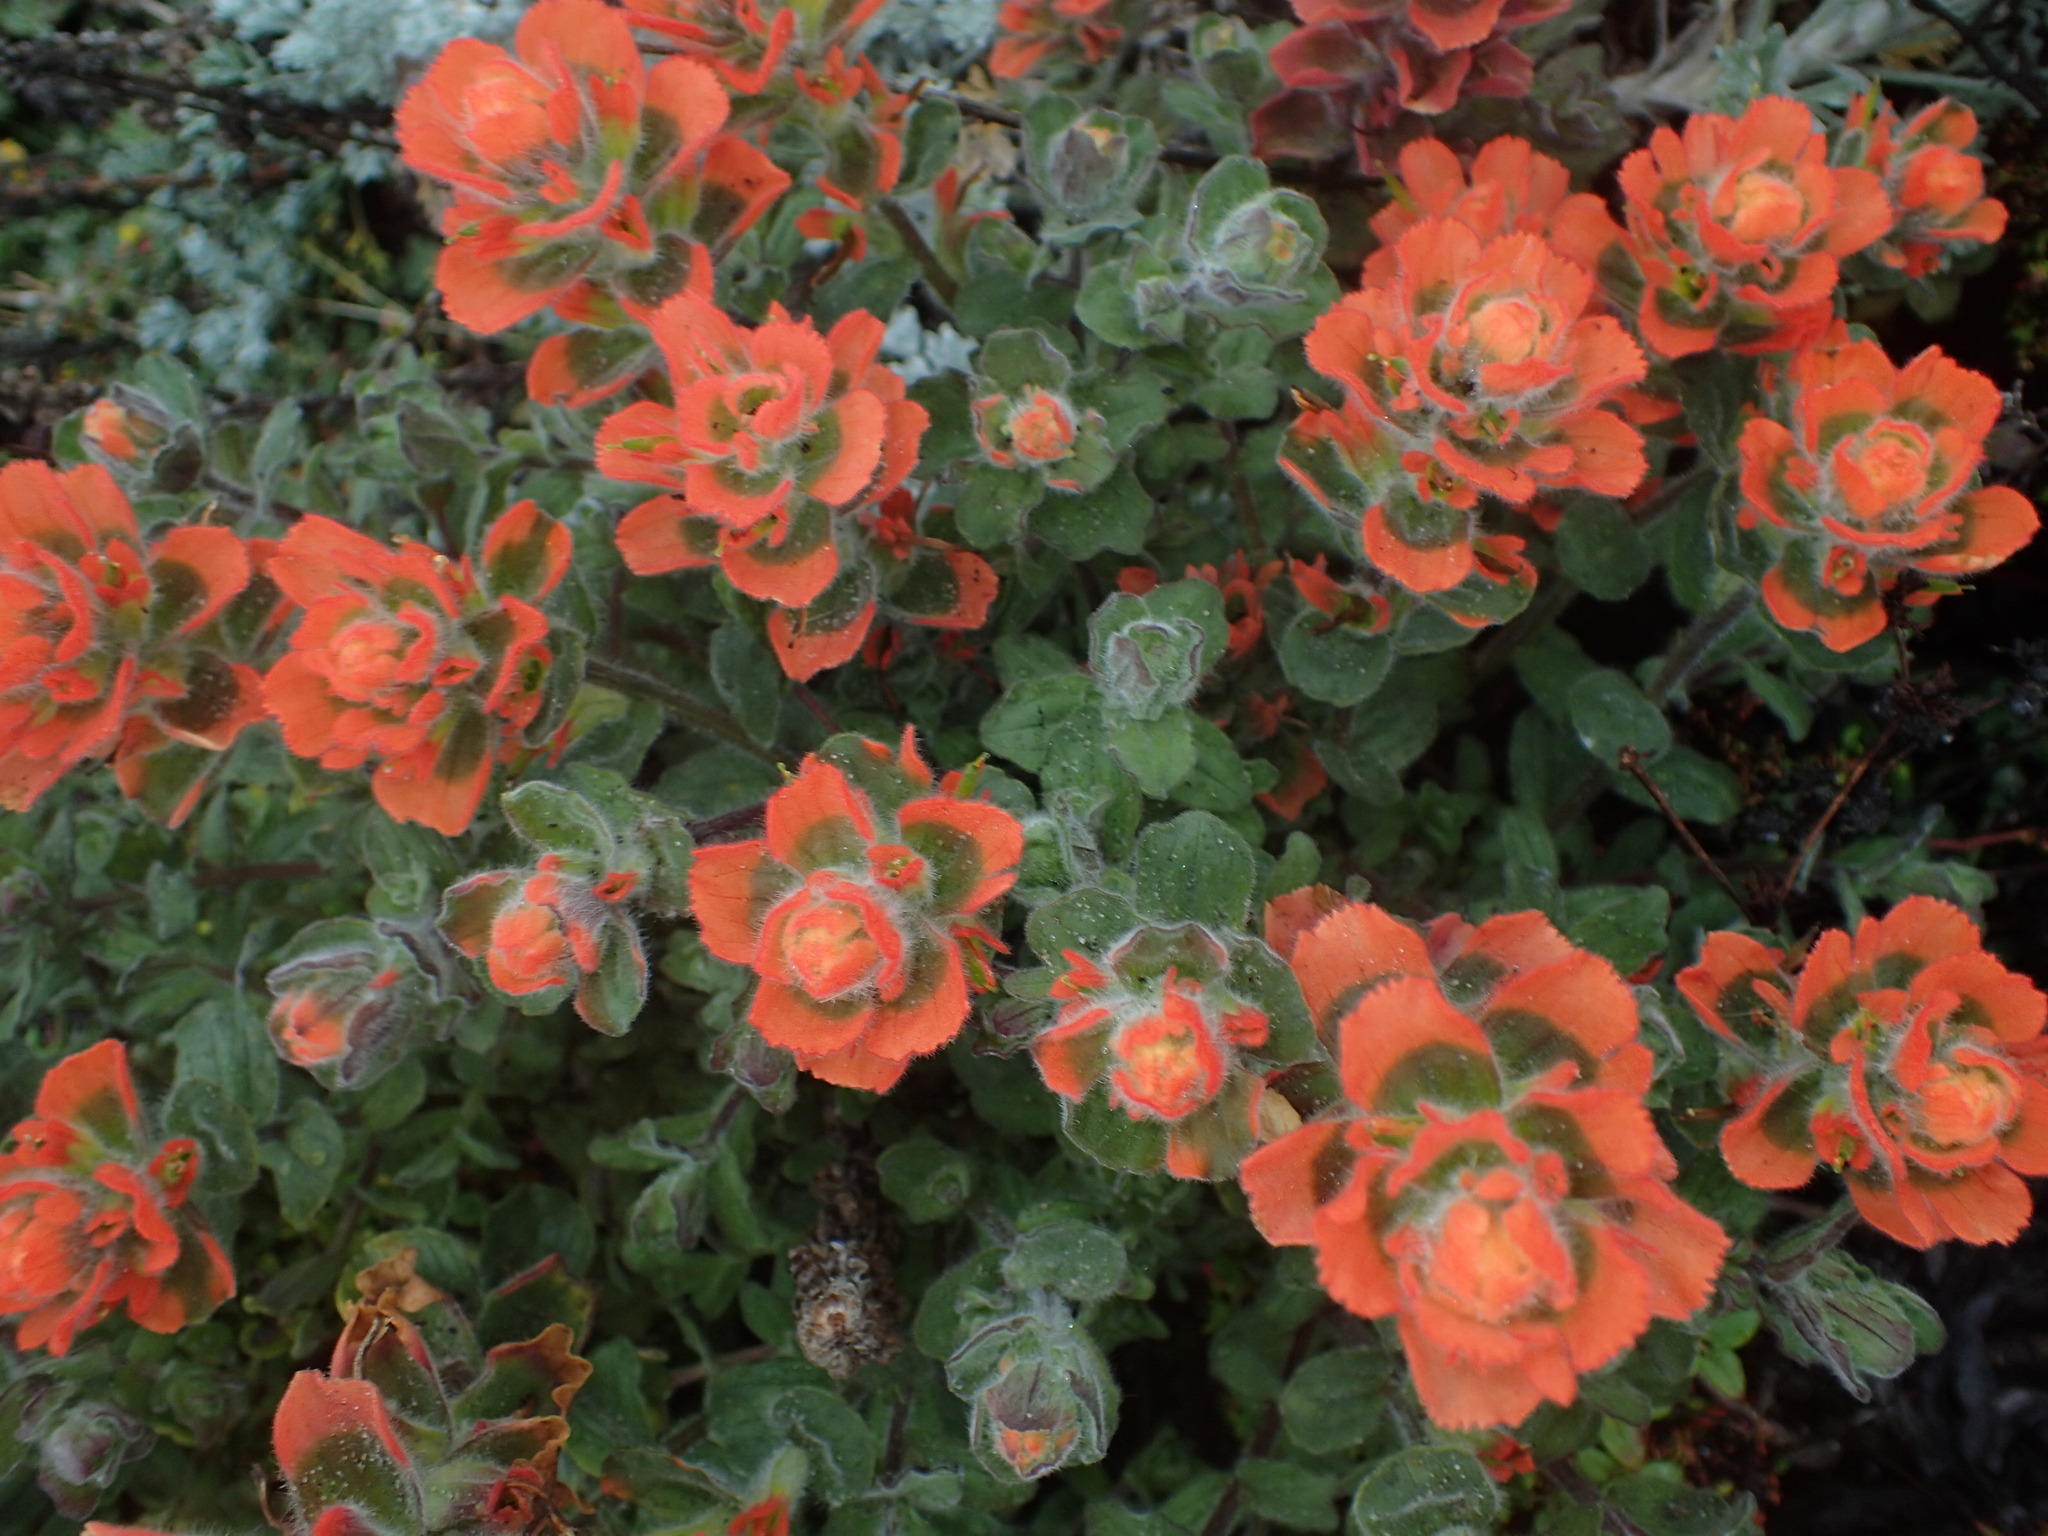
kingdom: Plantae
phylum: Tracheophyta
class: Magnoliopsida
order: Lamiales
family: Orobanchaceae
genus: Castilleja
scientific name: Castilleja latifolia
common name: Monterey indian paintbrush
